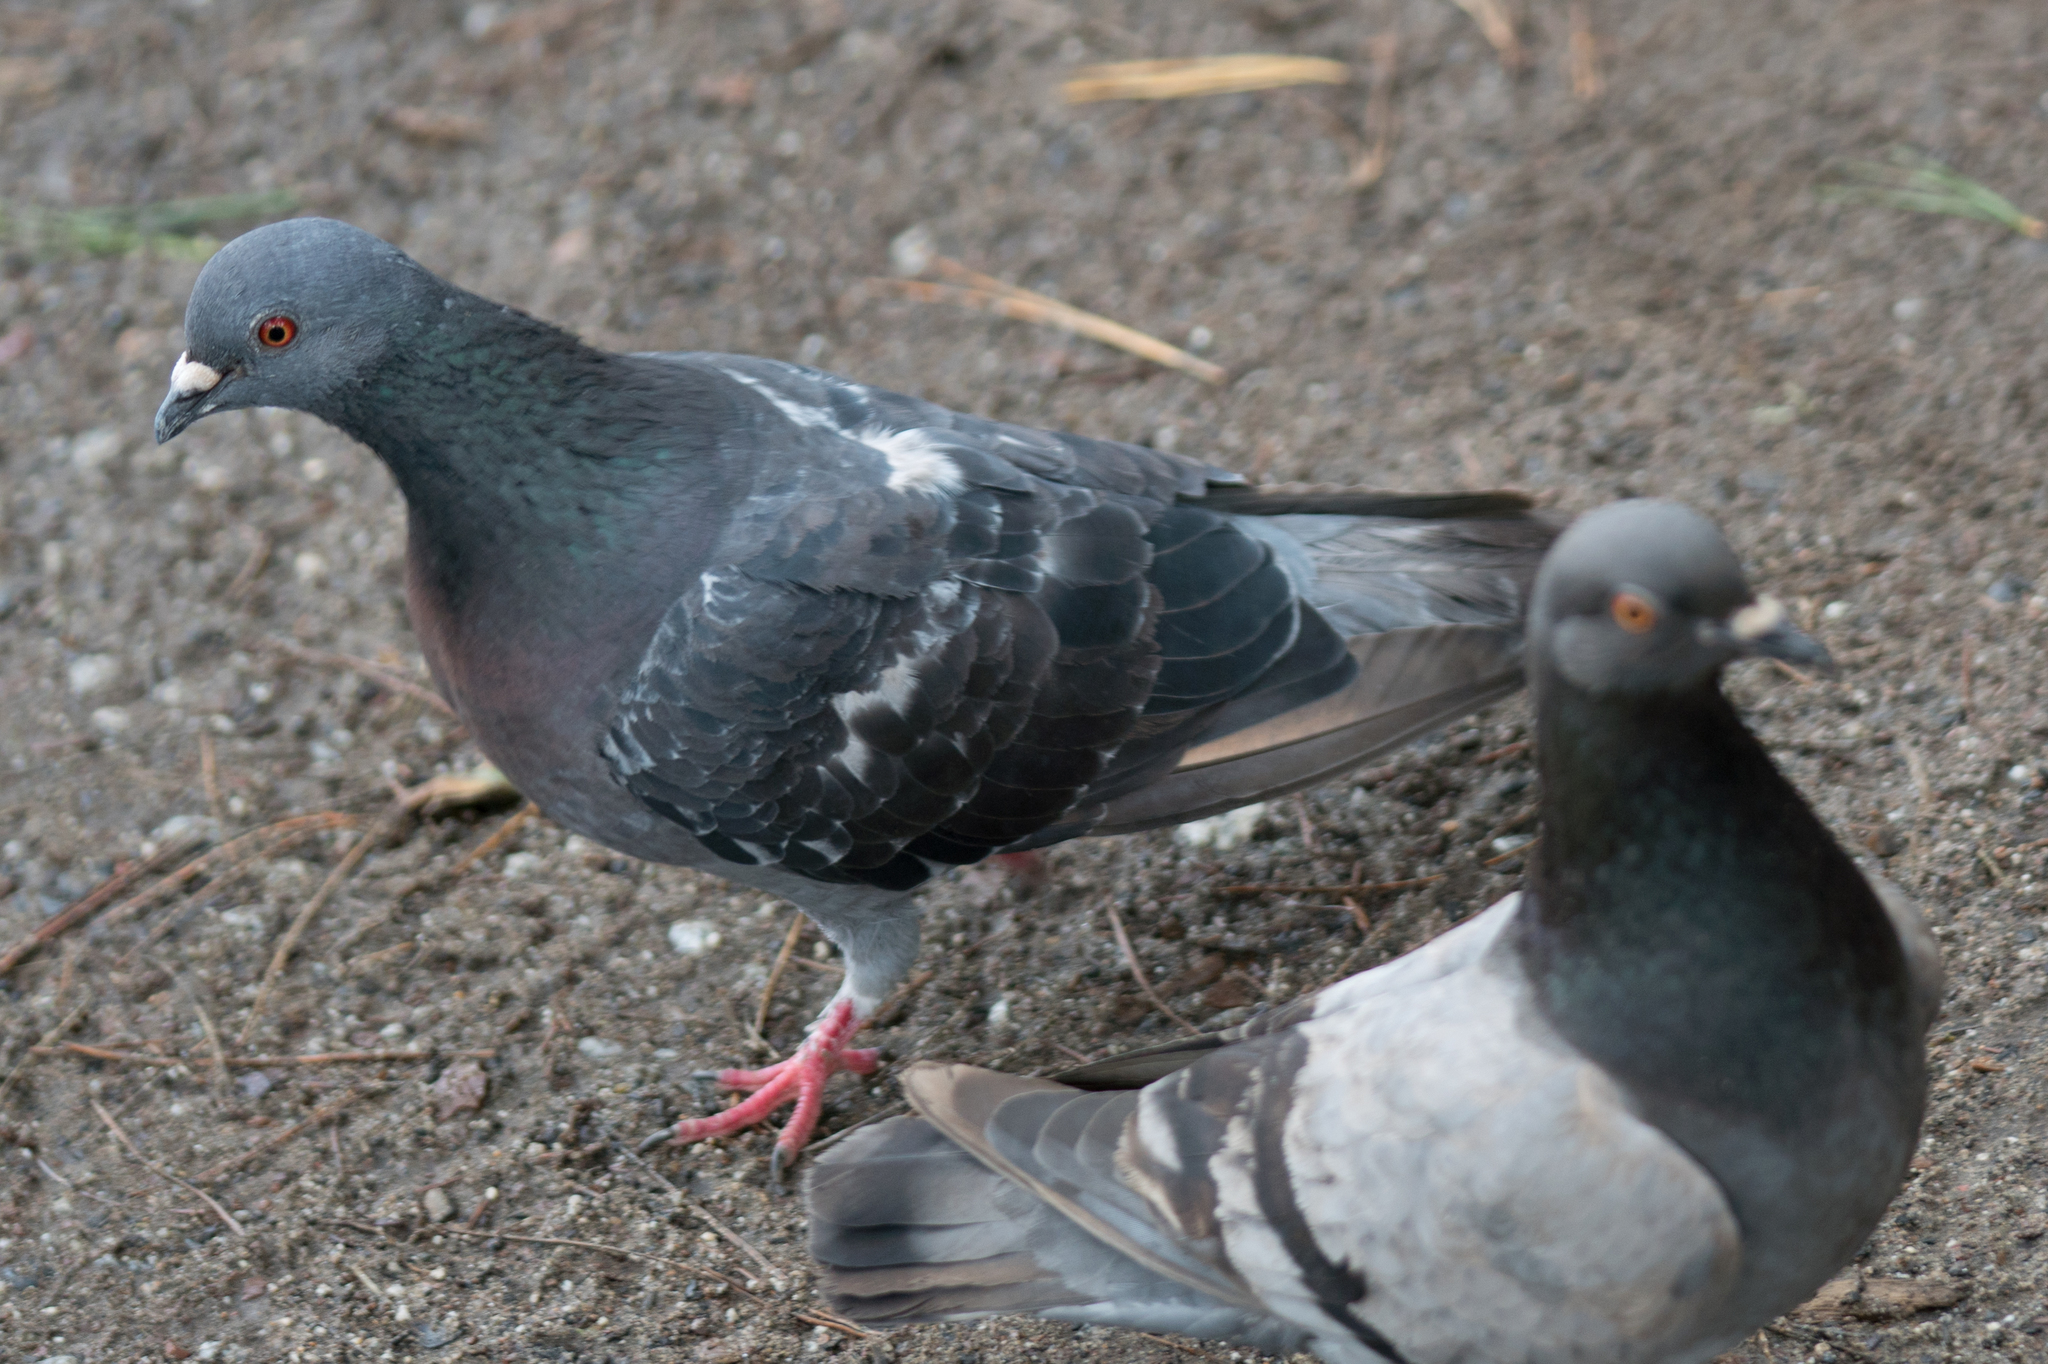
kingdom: Animalia
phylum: Chordata
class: Aves
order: Columbiformes
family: Columbidae
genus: Columba
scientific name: Columba livia
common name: Rock pigeon
